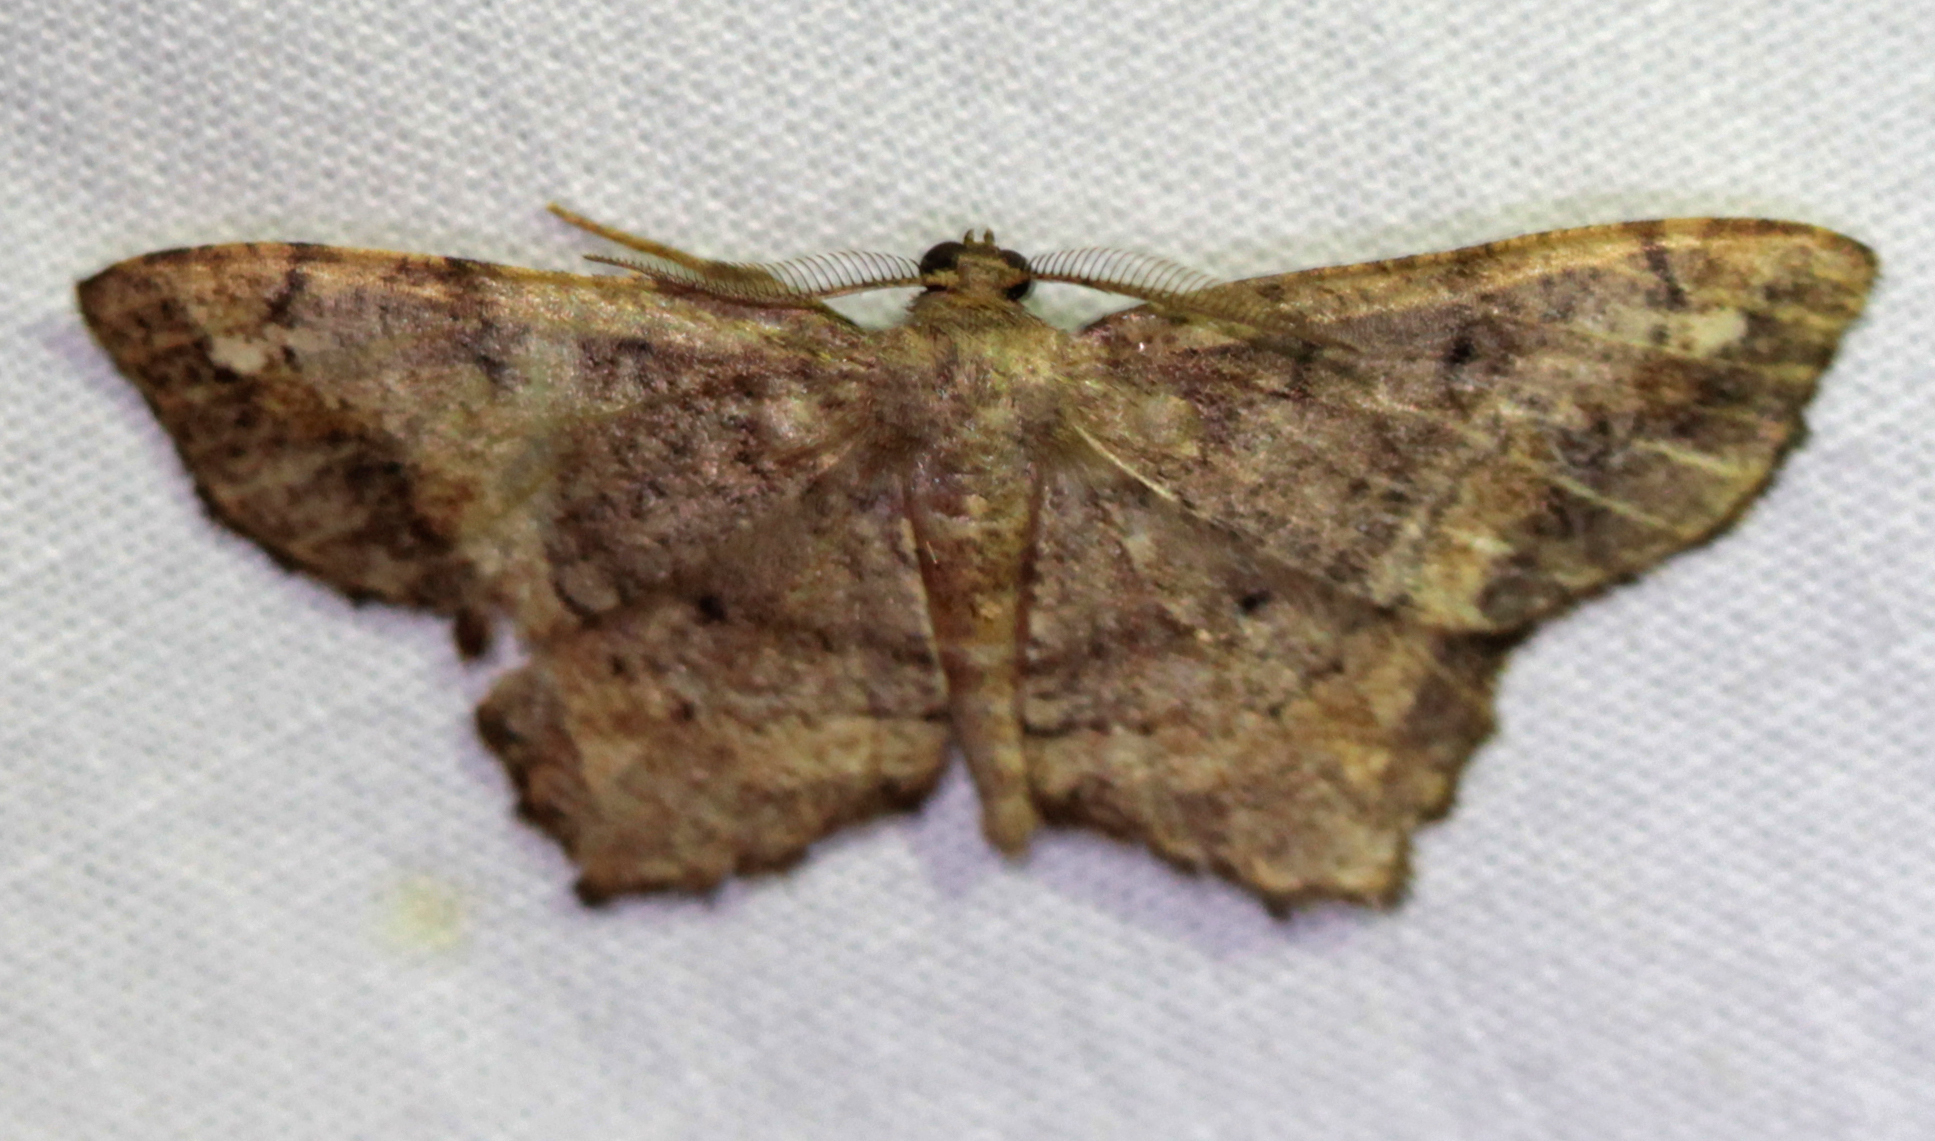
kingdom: Animalia
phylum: Arthropoda
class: Insecta
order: Lepidoptera
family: Geometridae
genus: Hypagyrtis
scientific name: Hypagyrtis unipunctata
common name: One-spotted variant
